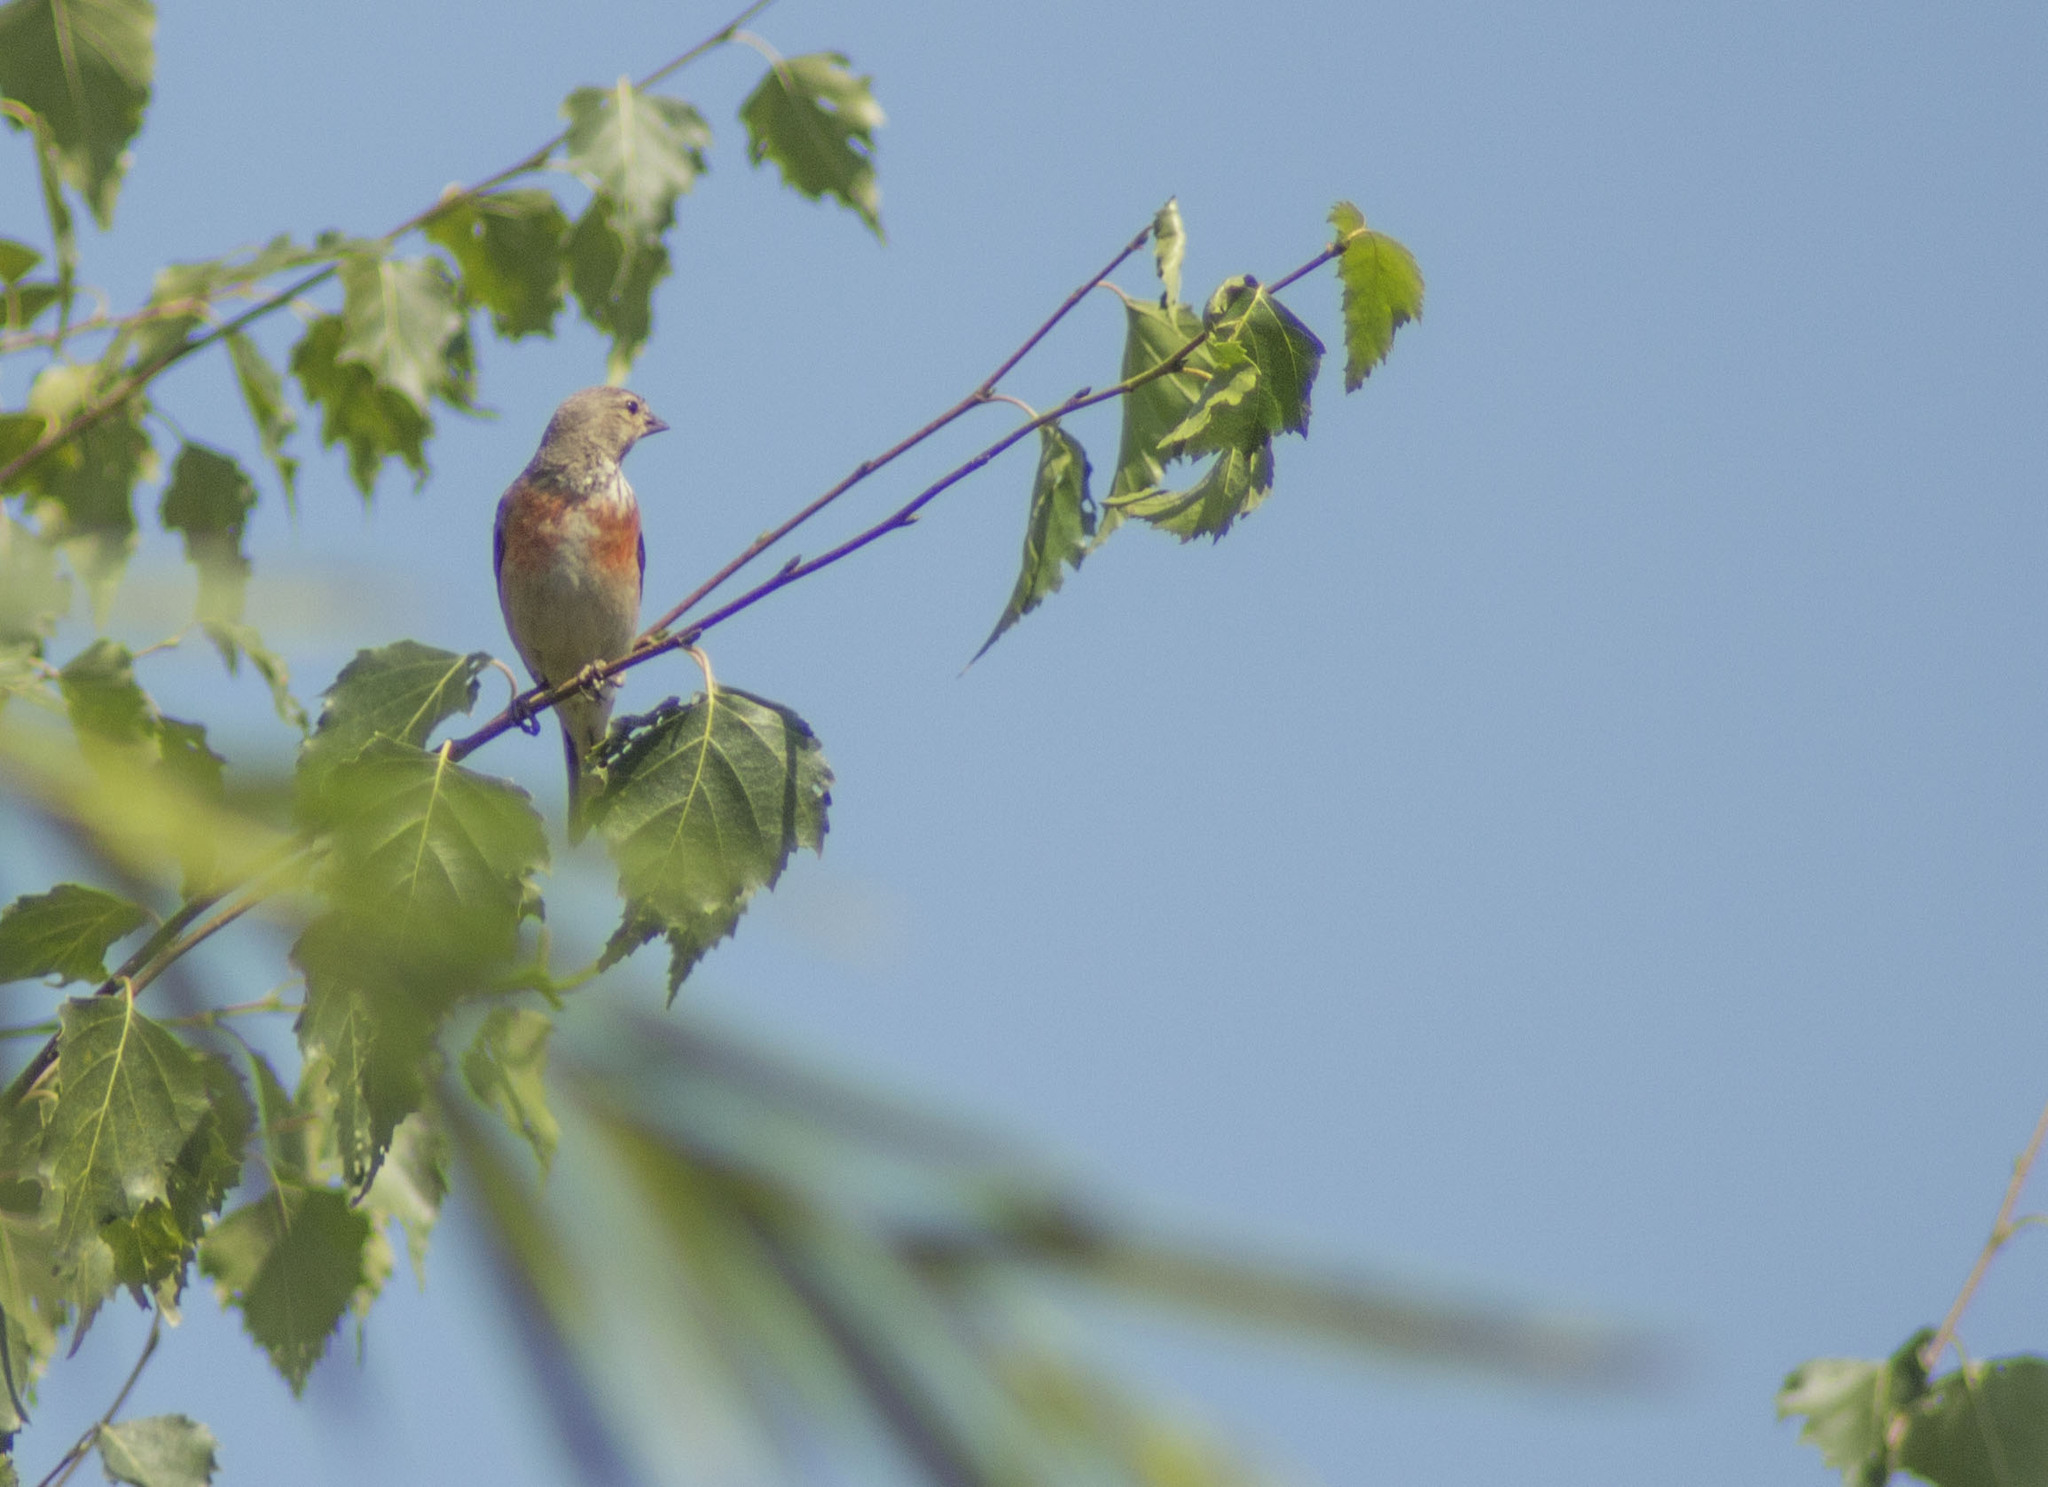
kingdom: Animalia
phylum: Chordata
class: Aves
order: Passeriformes
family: Fringillidae
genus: Linaria
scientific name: Linaria cannabina
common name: Common linnet
